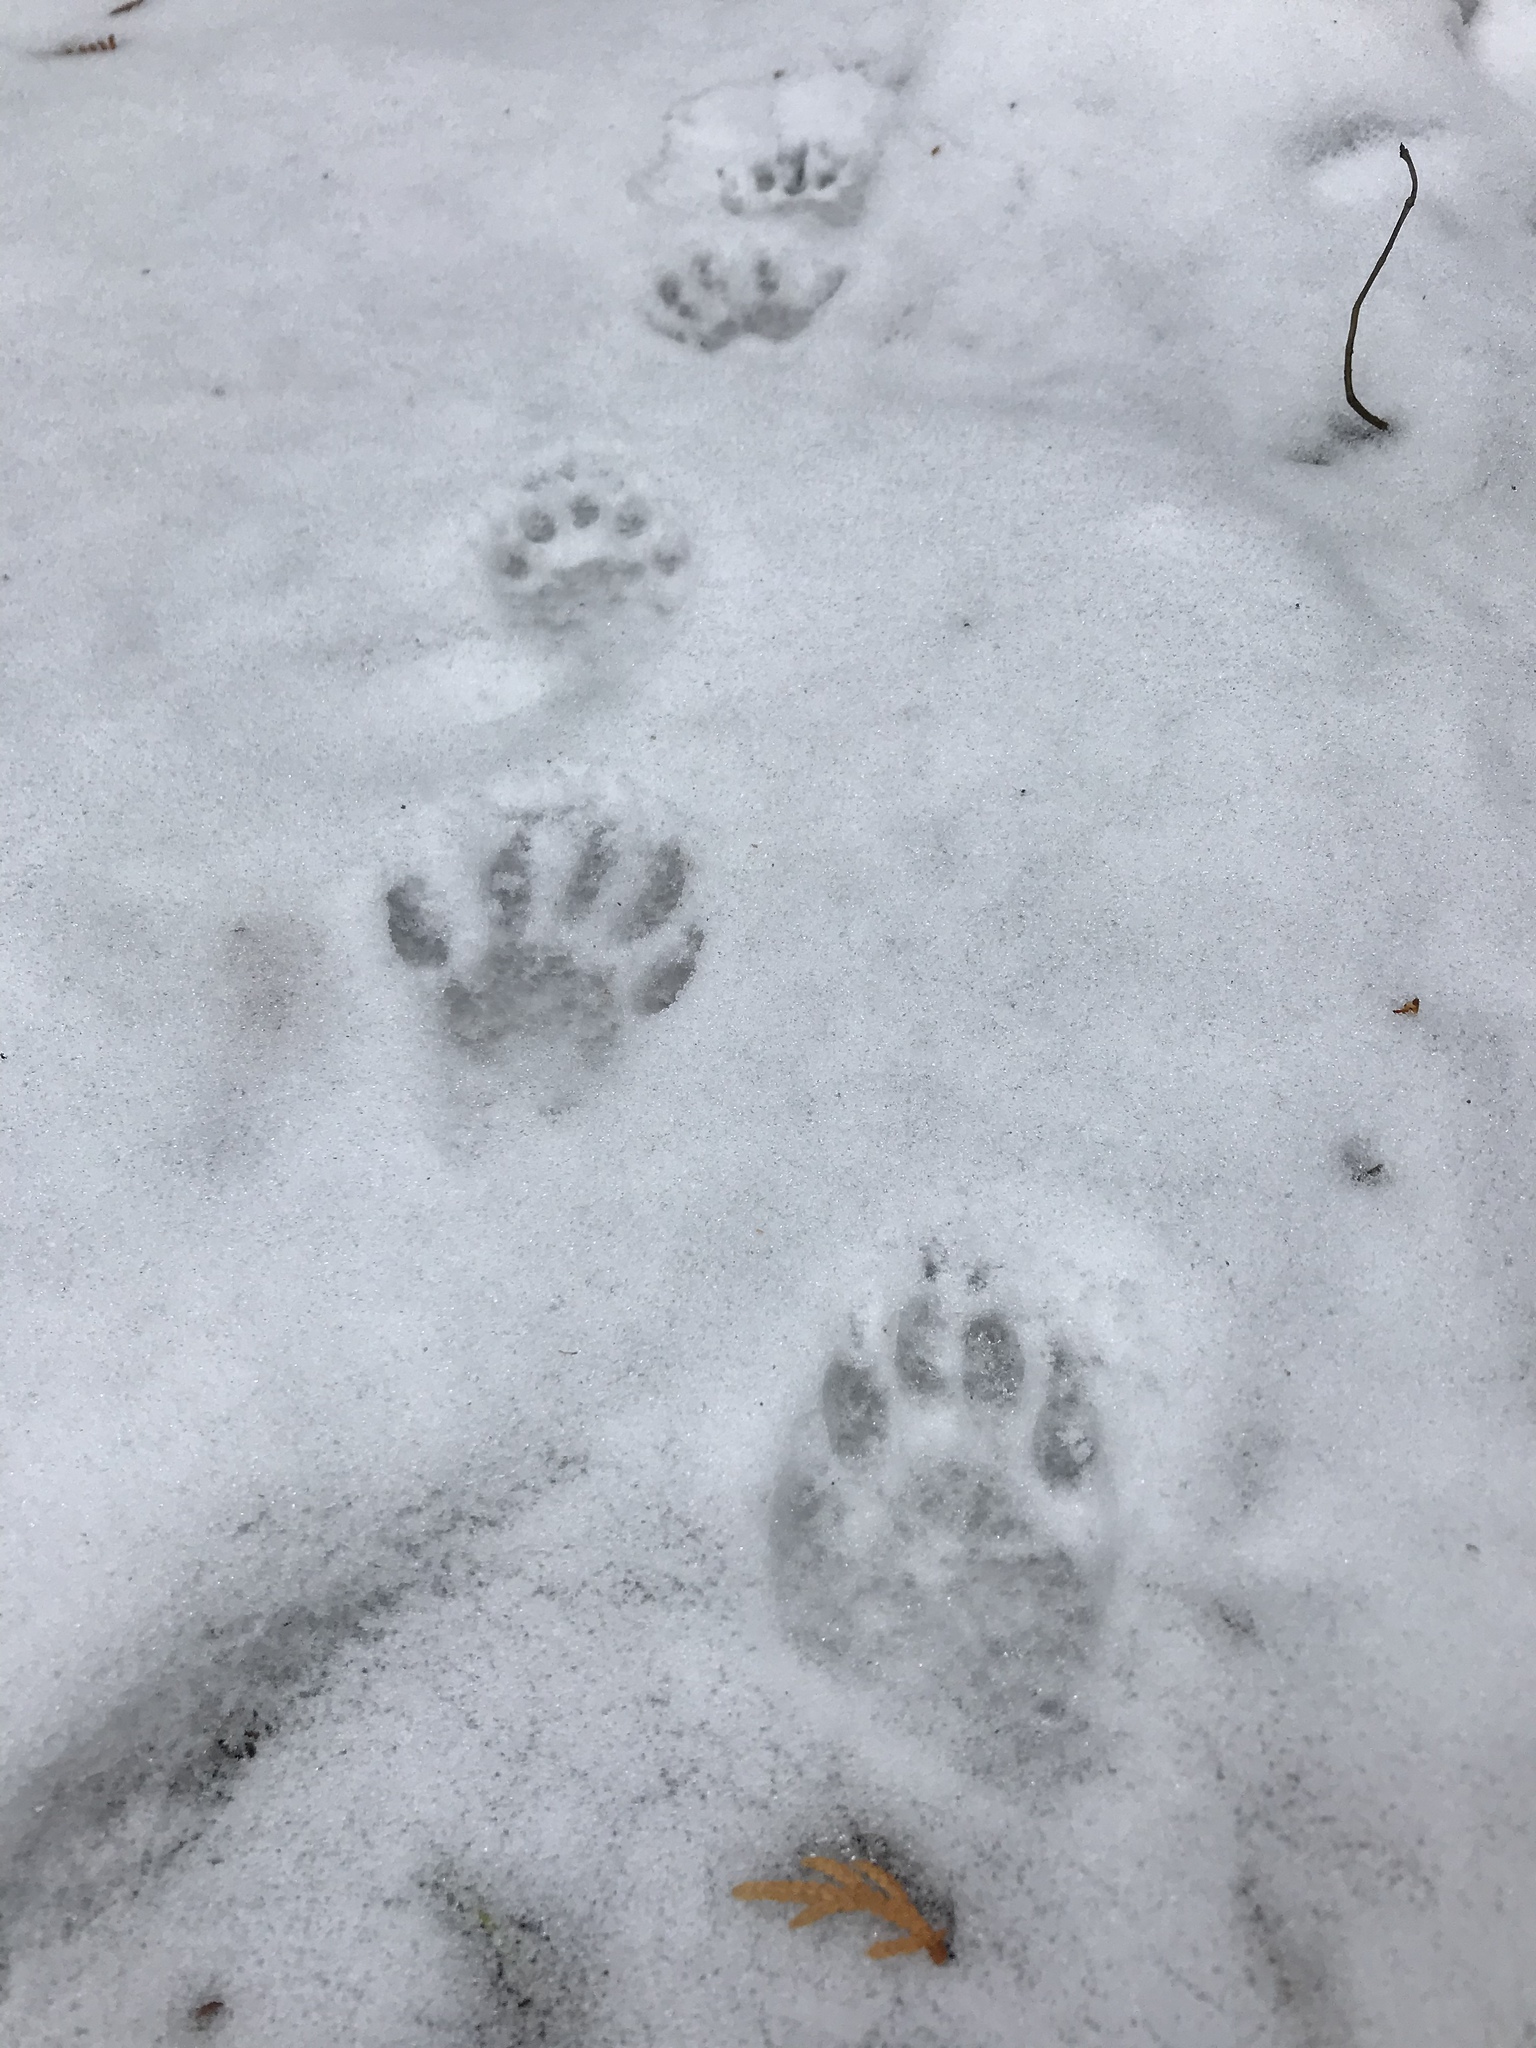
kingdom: Animalia
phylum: Chordata
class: Mammalia
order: Carnivora
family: Procyonidae
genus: Procyon
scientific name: Procyon lotor
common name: Raccoon
